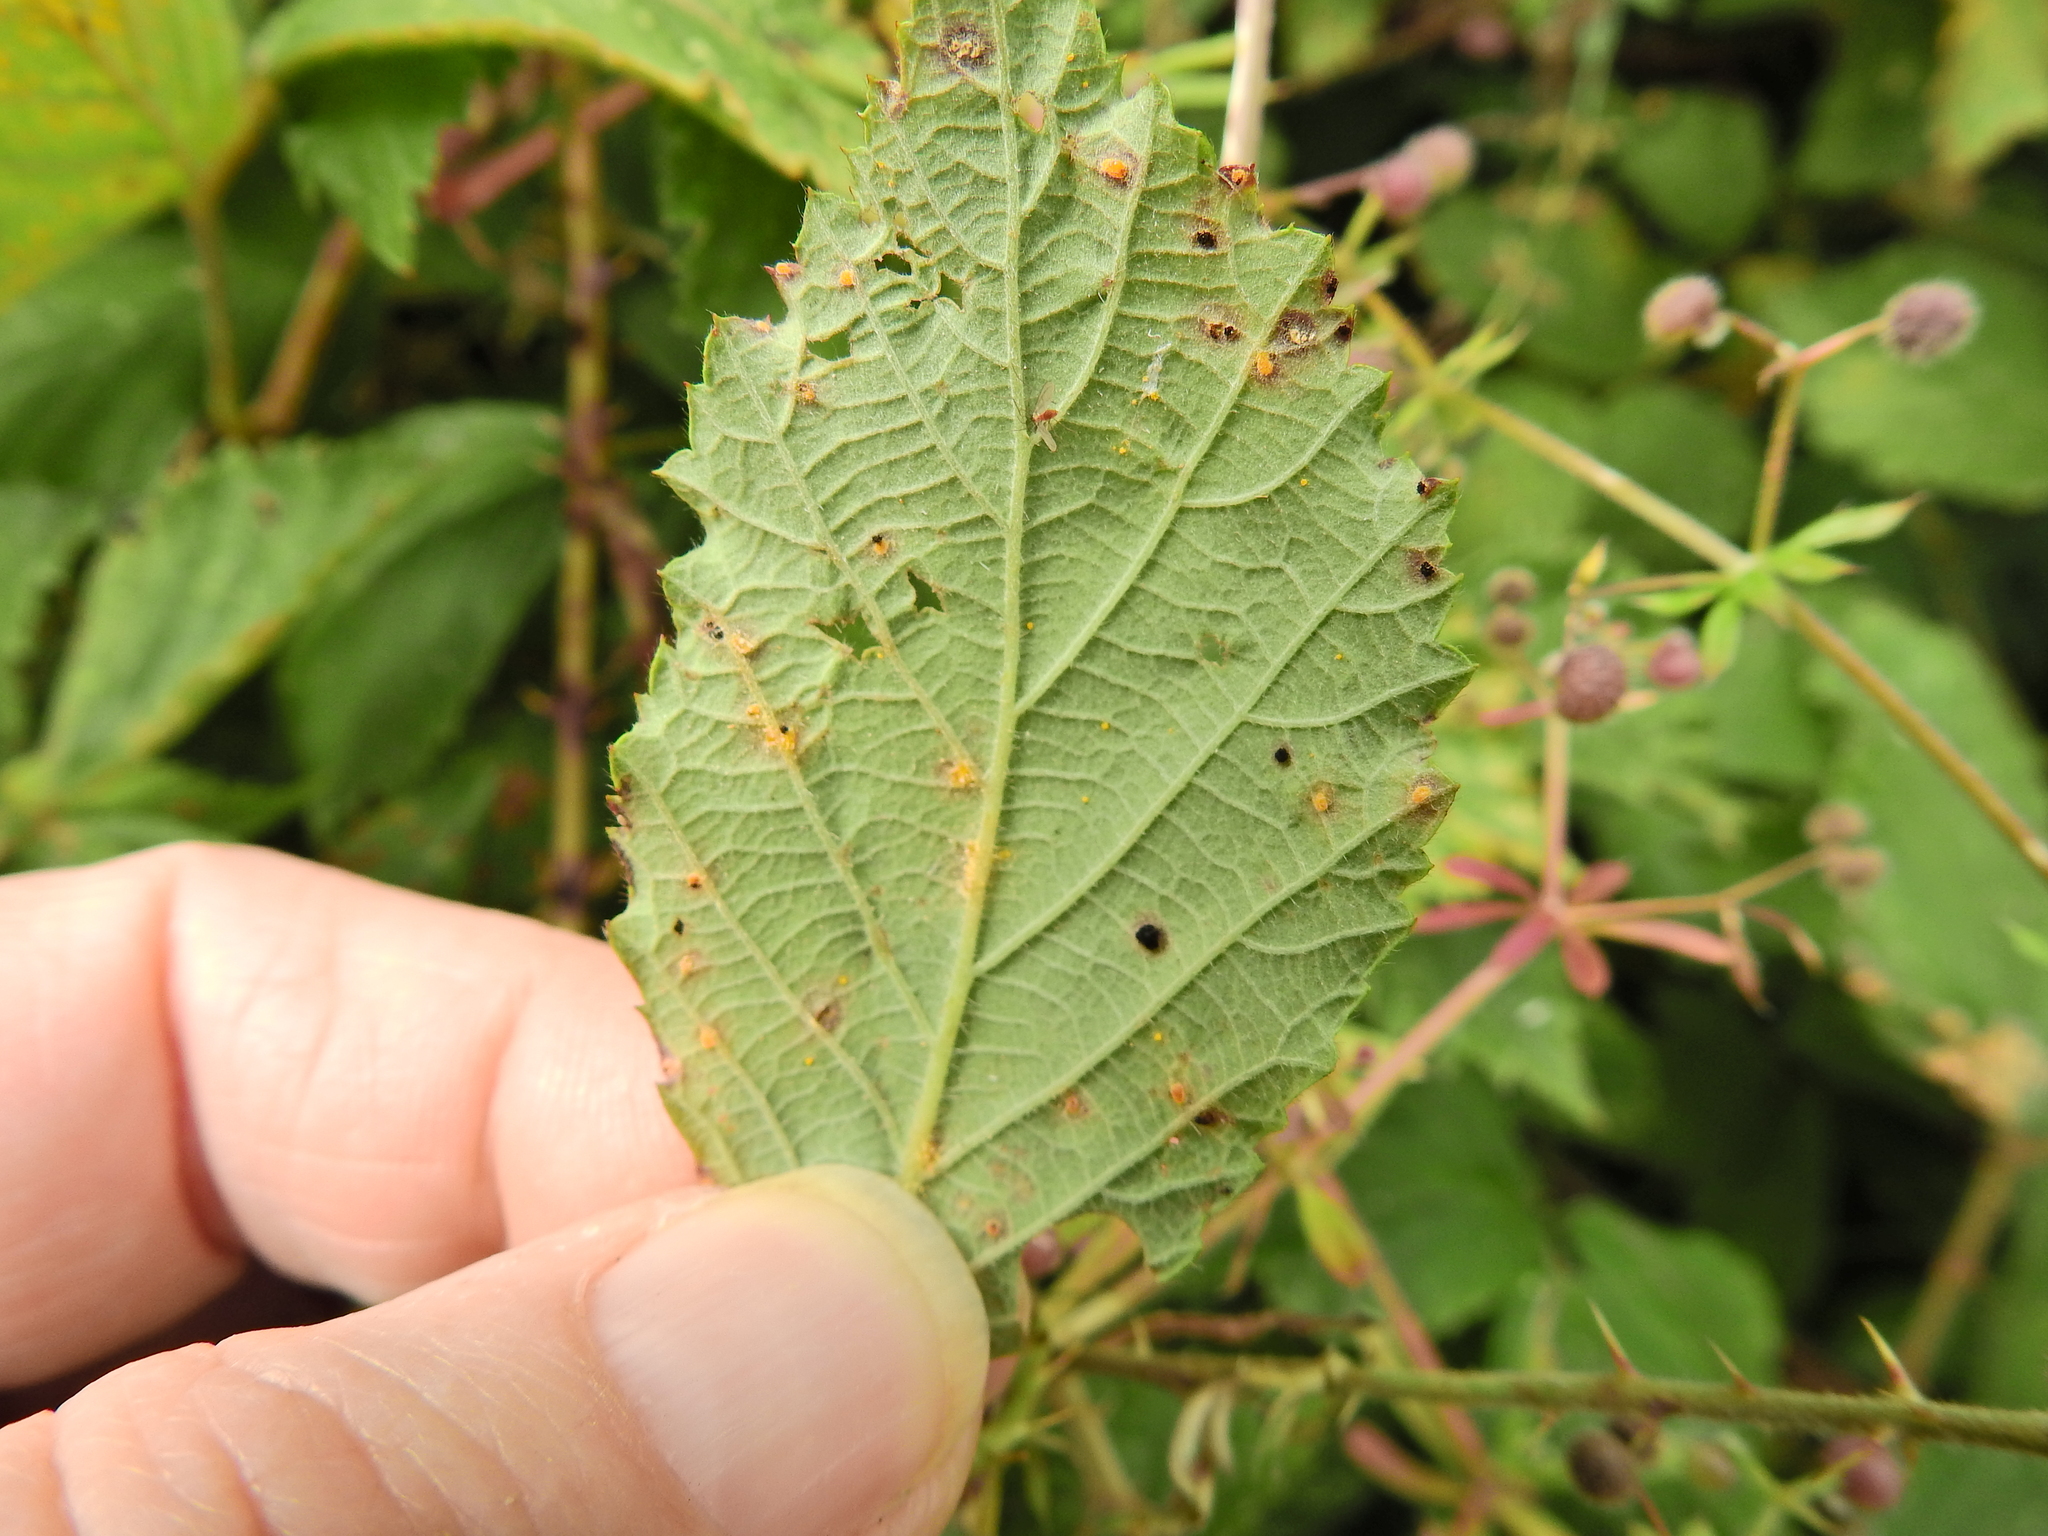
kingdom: Fungi
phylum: Basidiomycota
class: Pucciniomycetes
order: Pucciniales
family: Phragmidiaceae
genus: Phragmidium
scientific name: Phragmidium violaceum
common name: Violet bramble rust
